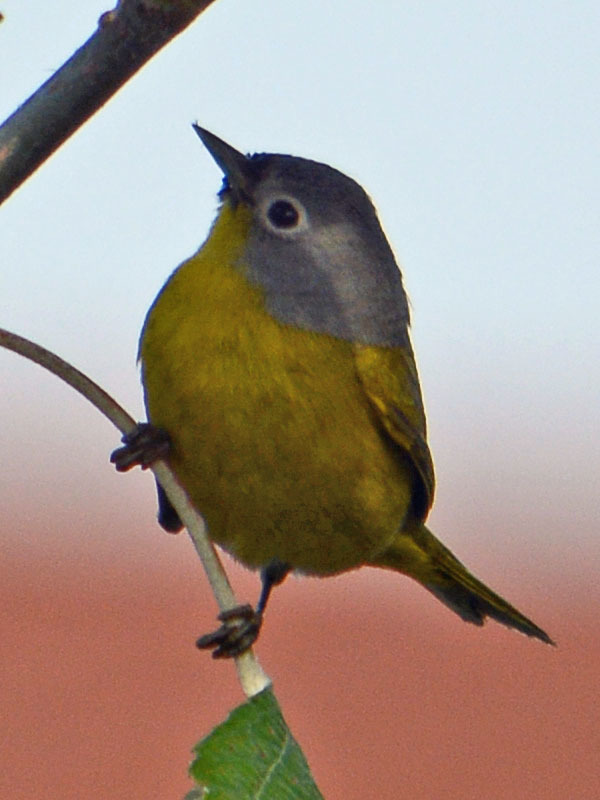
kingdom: Animalia
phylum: Chordata
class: Aves
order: Passeriformes
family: Parulidae
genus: Leiothlypis
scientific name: Leiothlypis ruficapilla
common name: Nashville warbler
